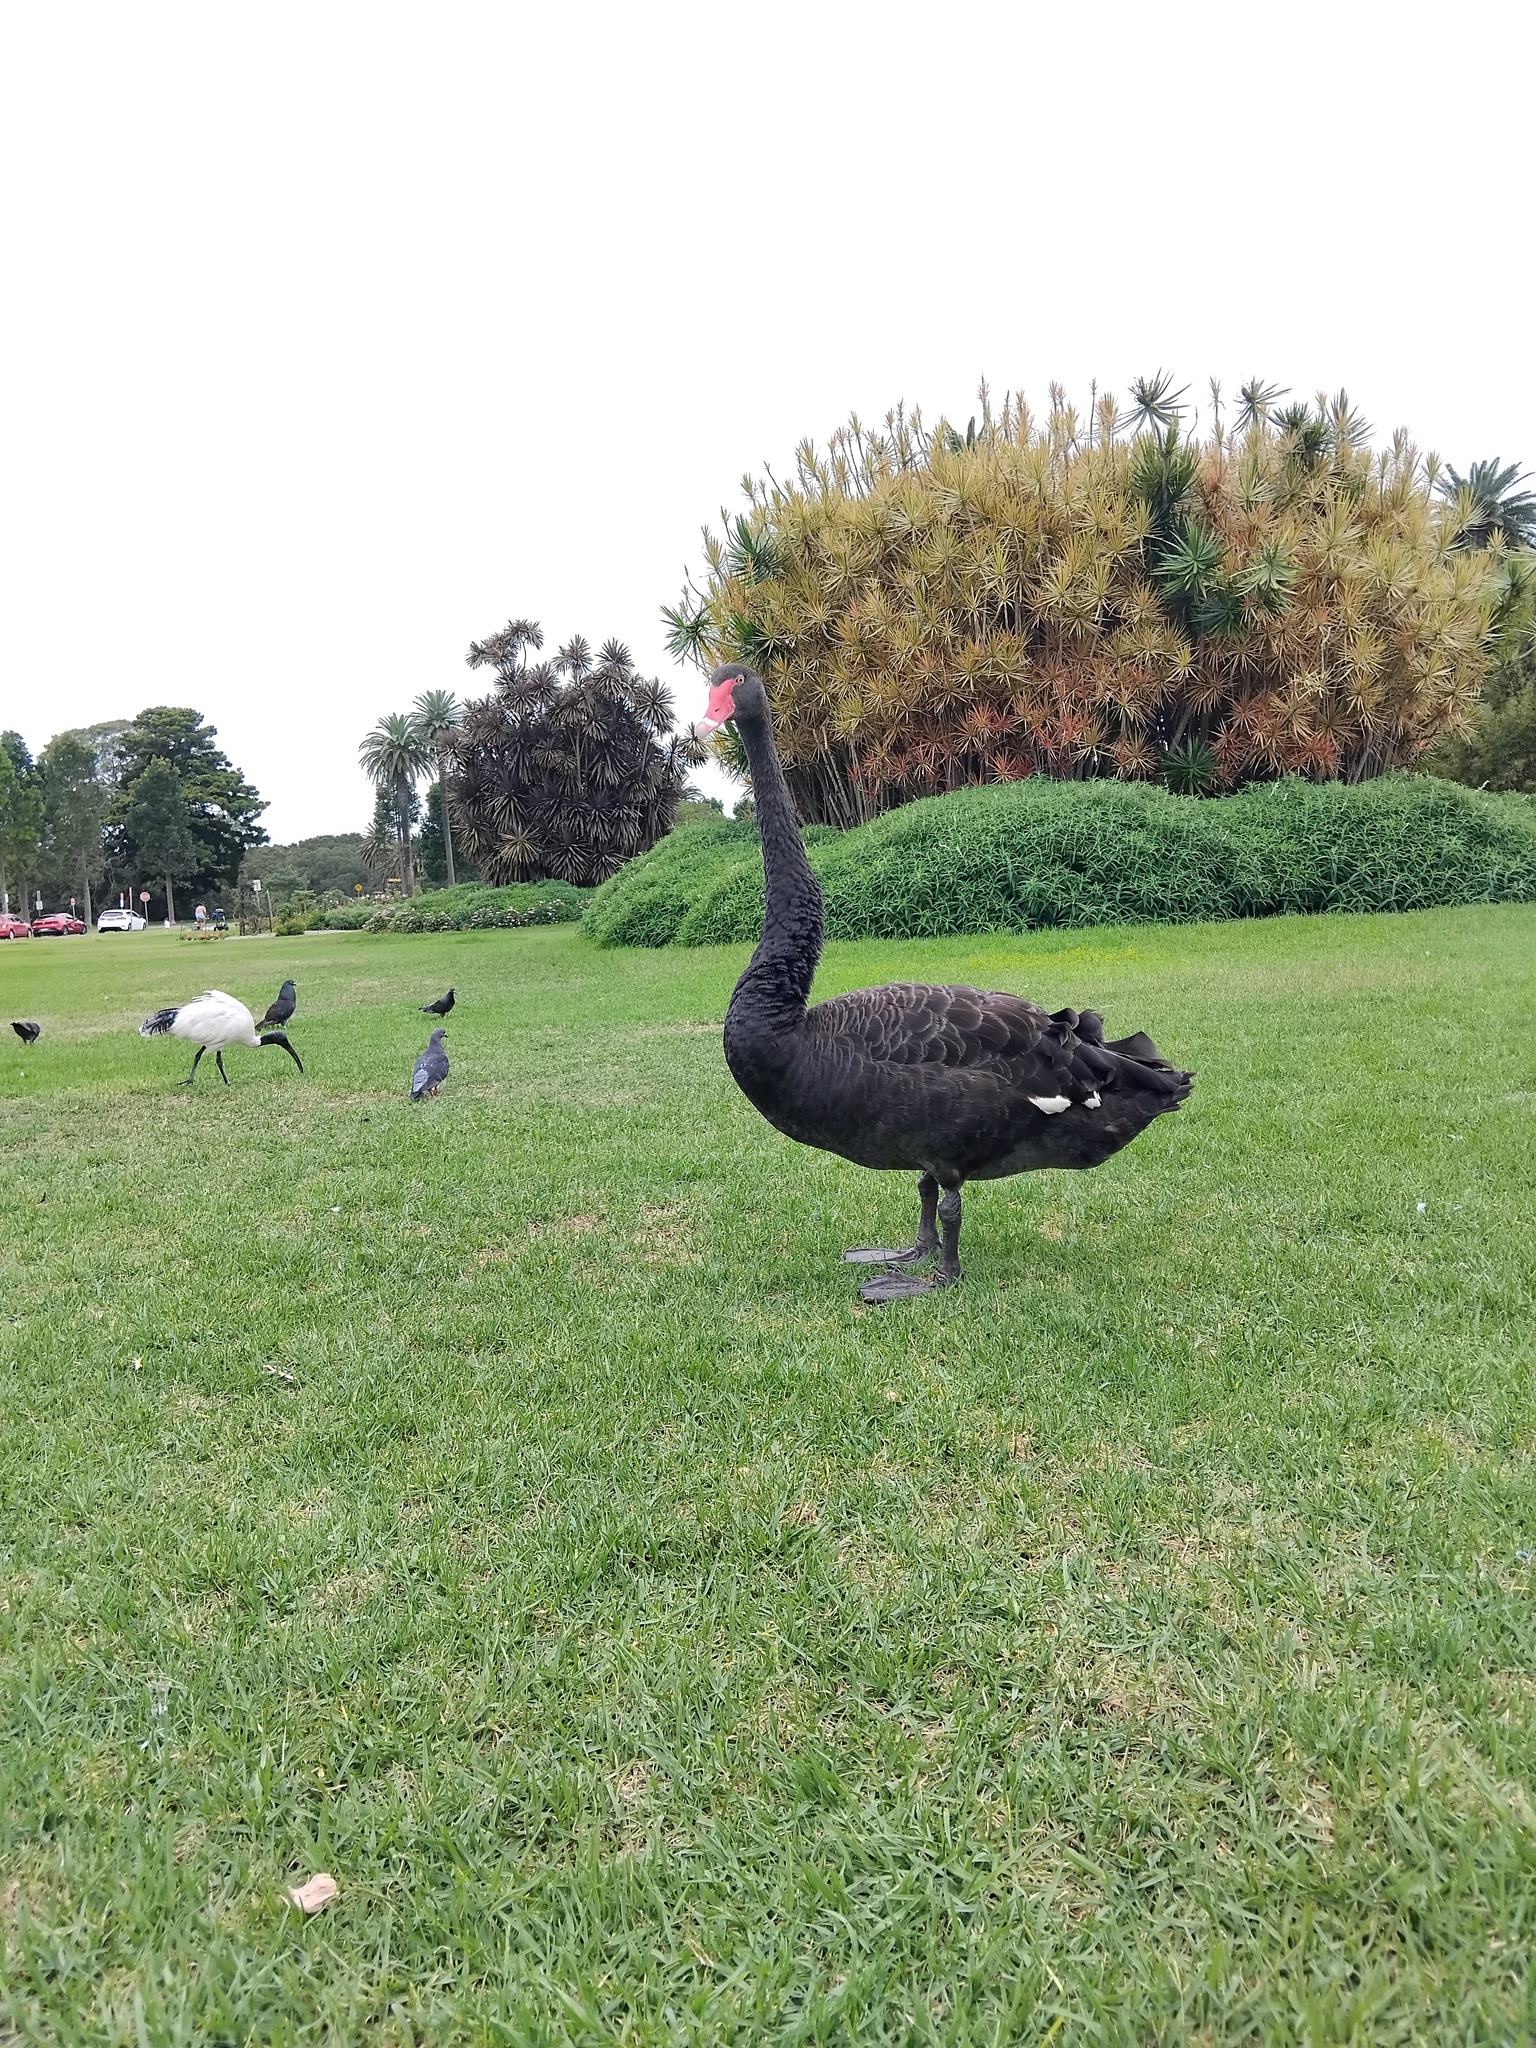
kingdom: Animalia
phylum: Chordata
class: Aves
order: Anseriformes
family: Anatidae
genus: Cygnus
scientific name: Cygnus atratus
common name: Black swan
